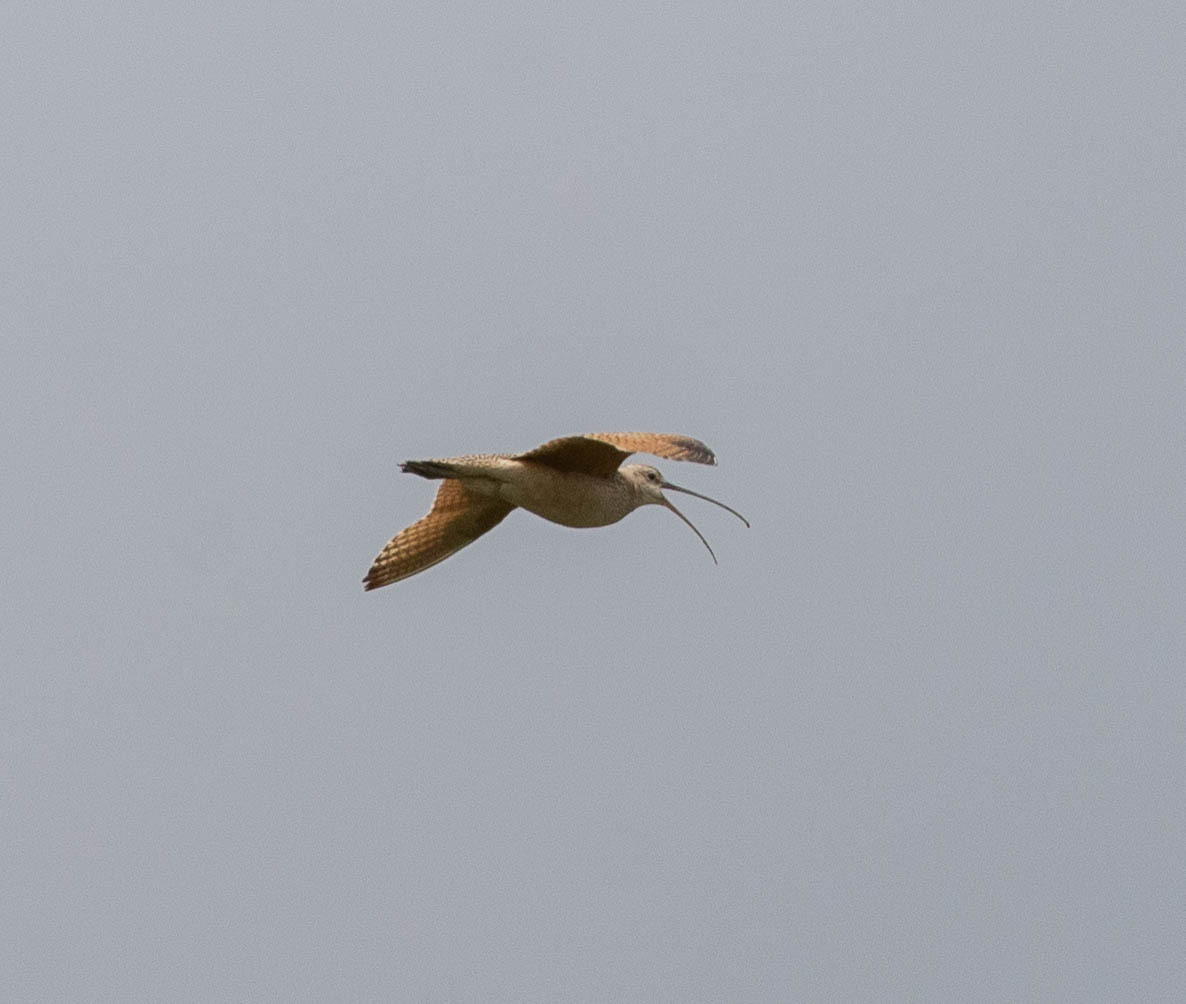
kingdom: Animalia
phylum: Chordata
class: Aves
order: Charadriiformes
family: Scolopacidae
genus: Numenius
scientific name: Numenius americanus
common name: Long-billed curlew
